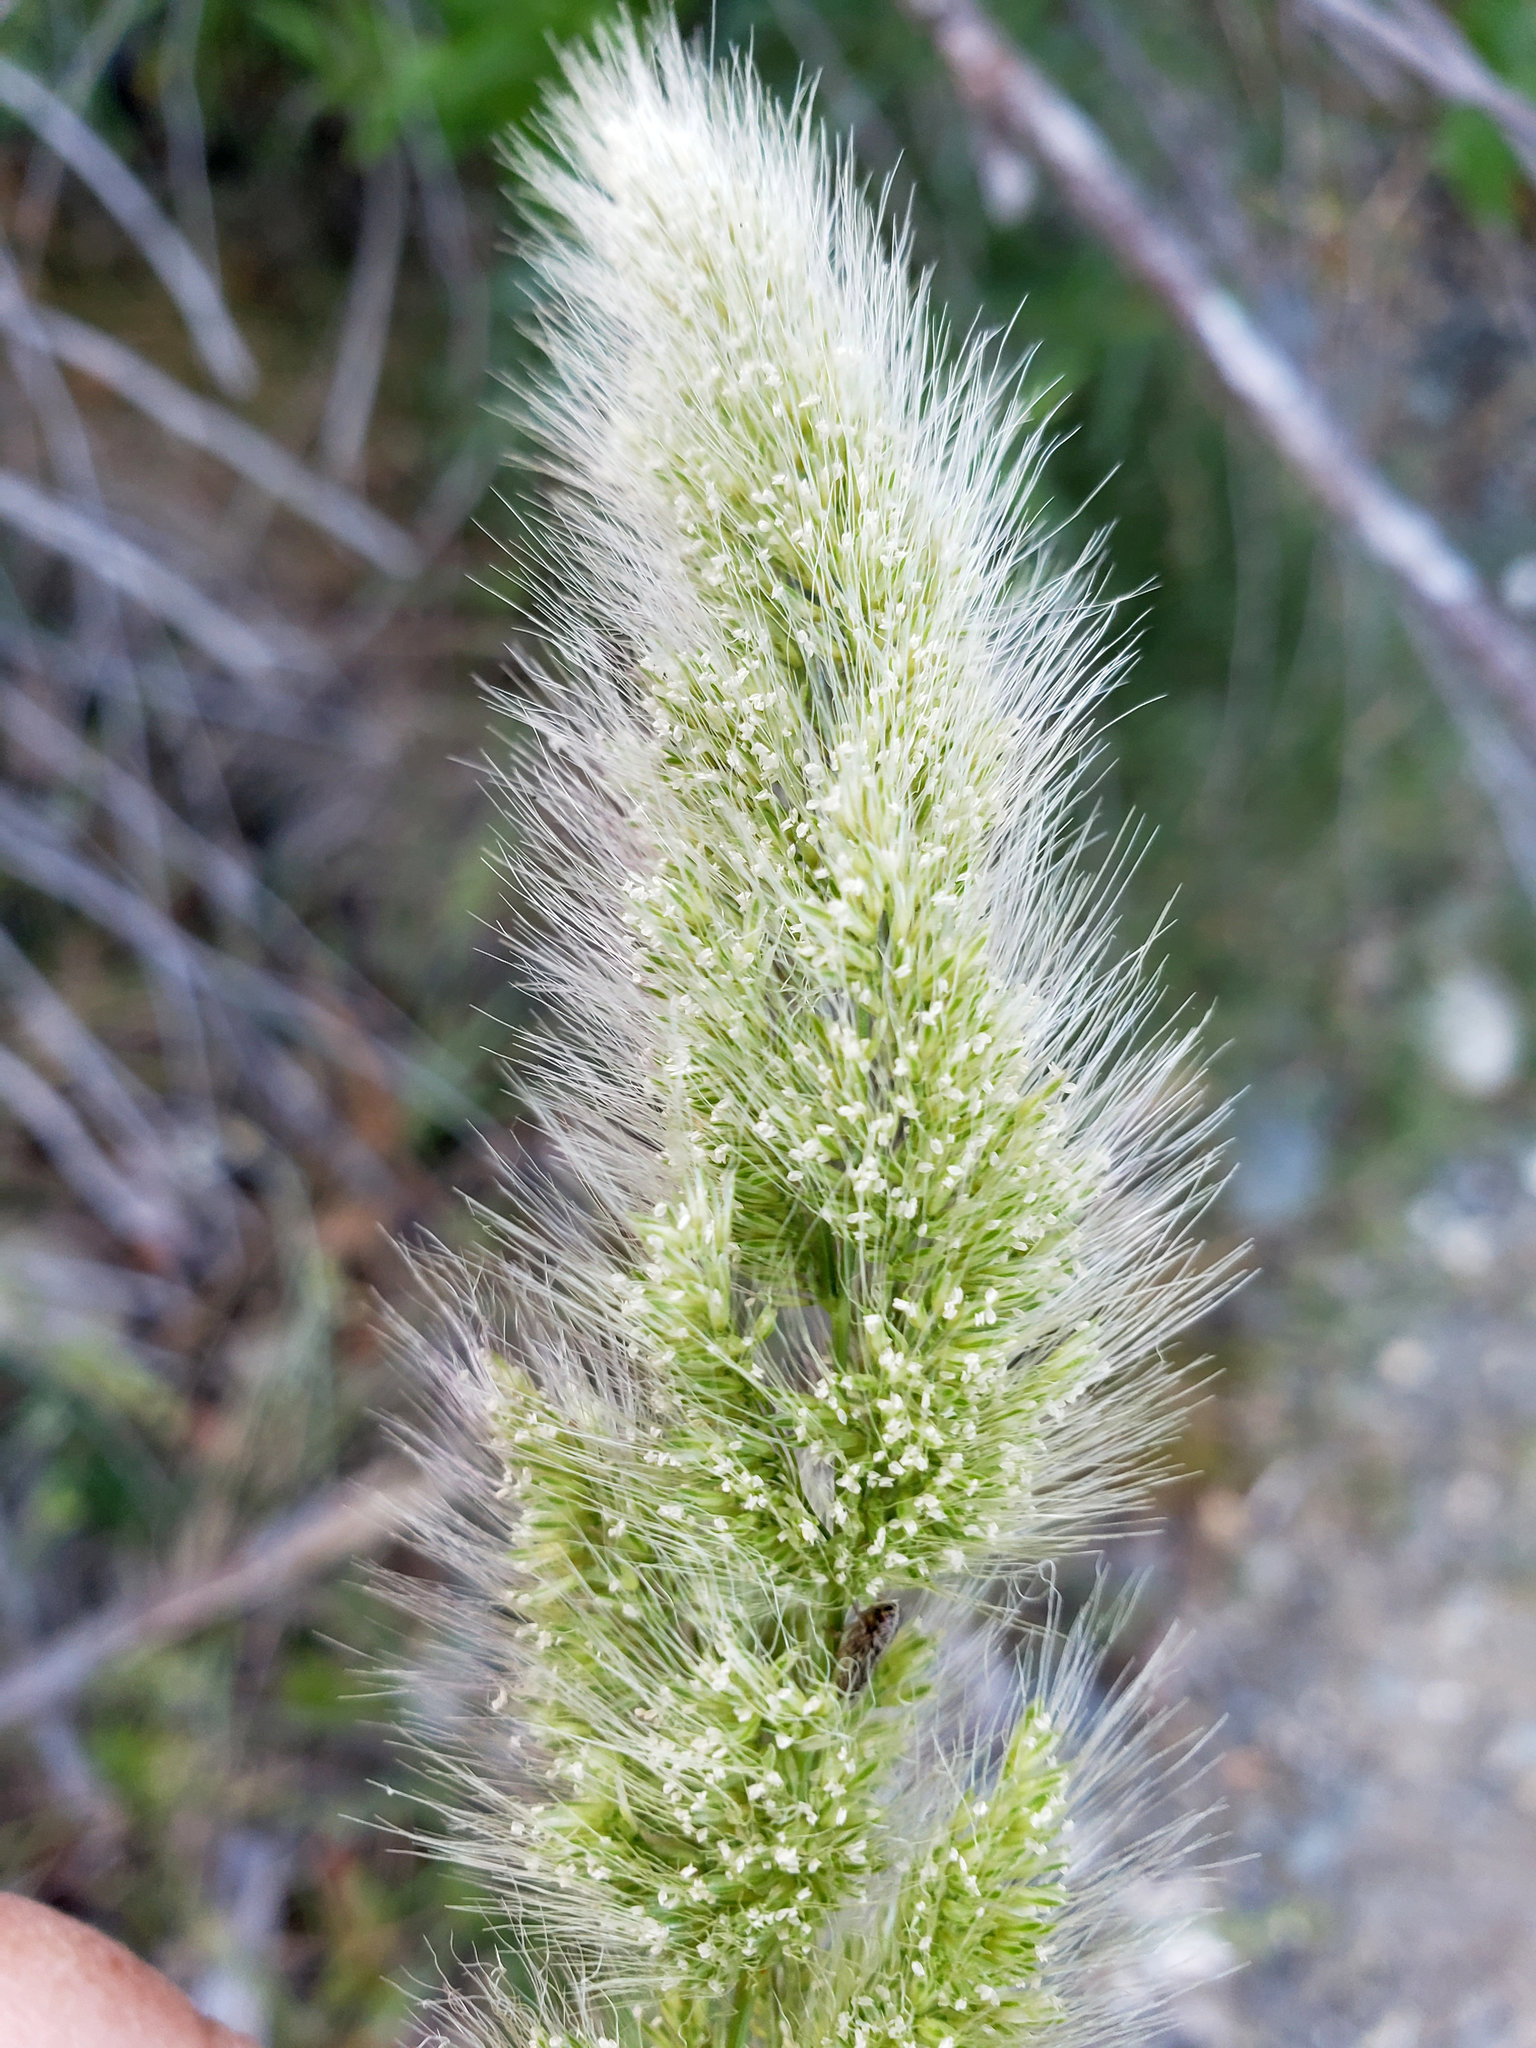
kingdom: Plantae
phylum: Tracheophyta
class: Liliopsida
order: Poales
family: Poaceae
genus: Polypogon
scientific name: Polypogon monspeliensis
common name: Annual rabbitsfoot grass
